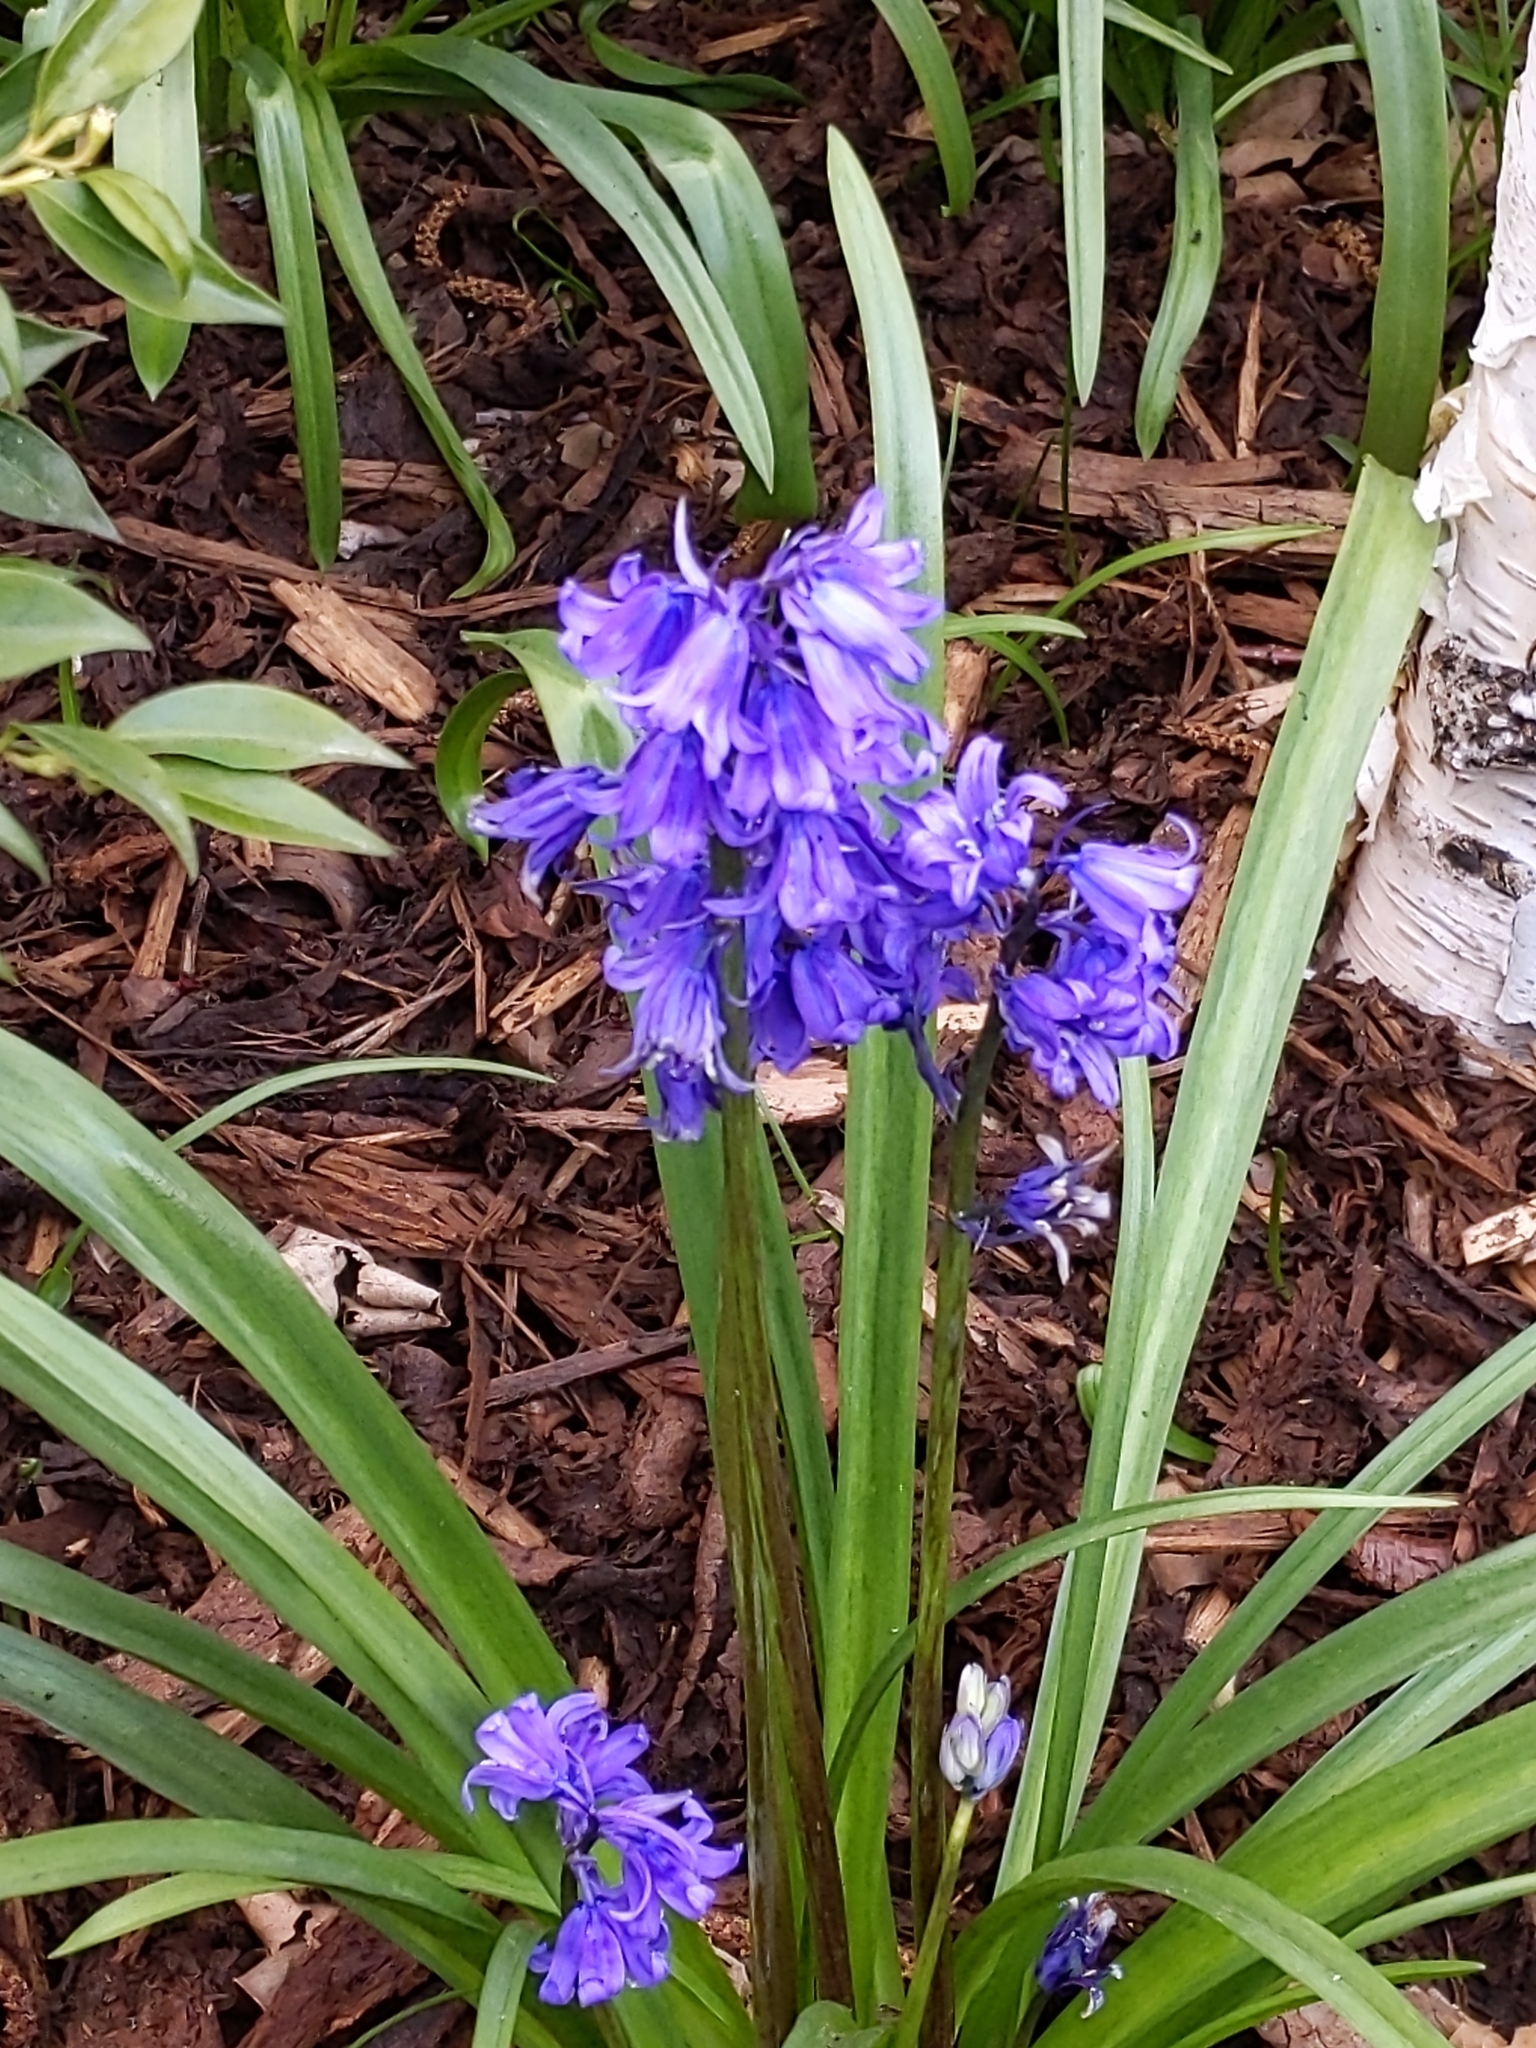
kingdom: Plantae
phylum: Tracheophyta
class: Liliopsida
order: Asparagales
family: Asparagaceae
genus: Hyacinthoides
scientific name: Hyacinthoides massartiana
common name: Hyacinthoides
